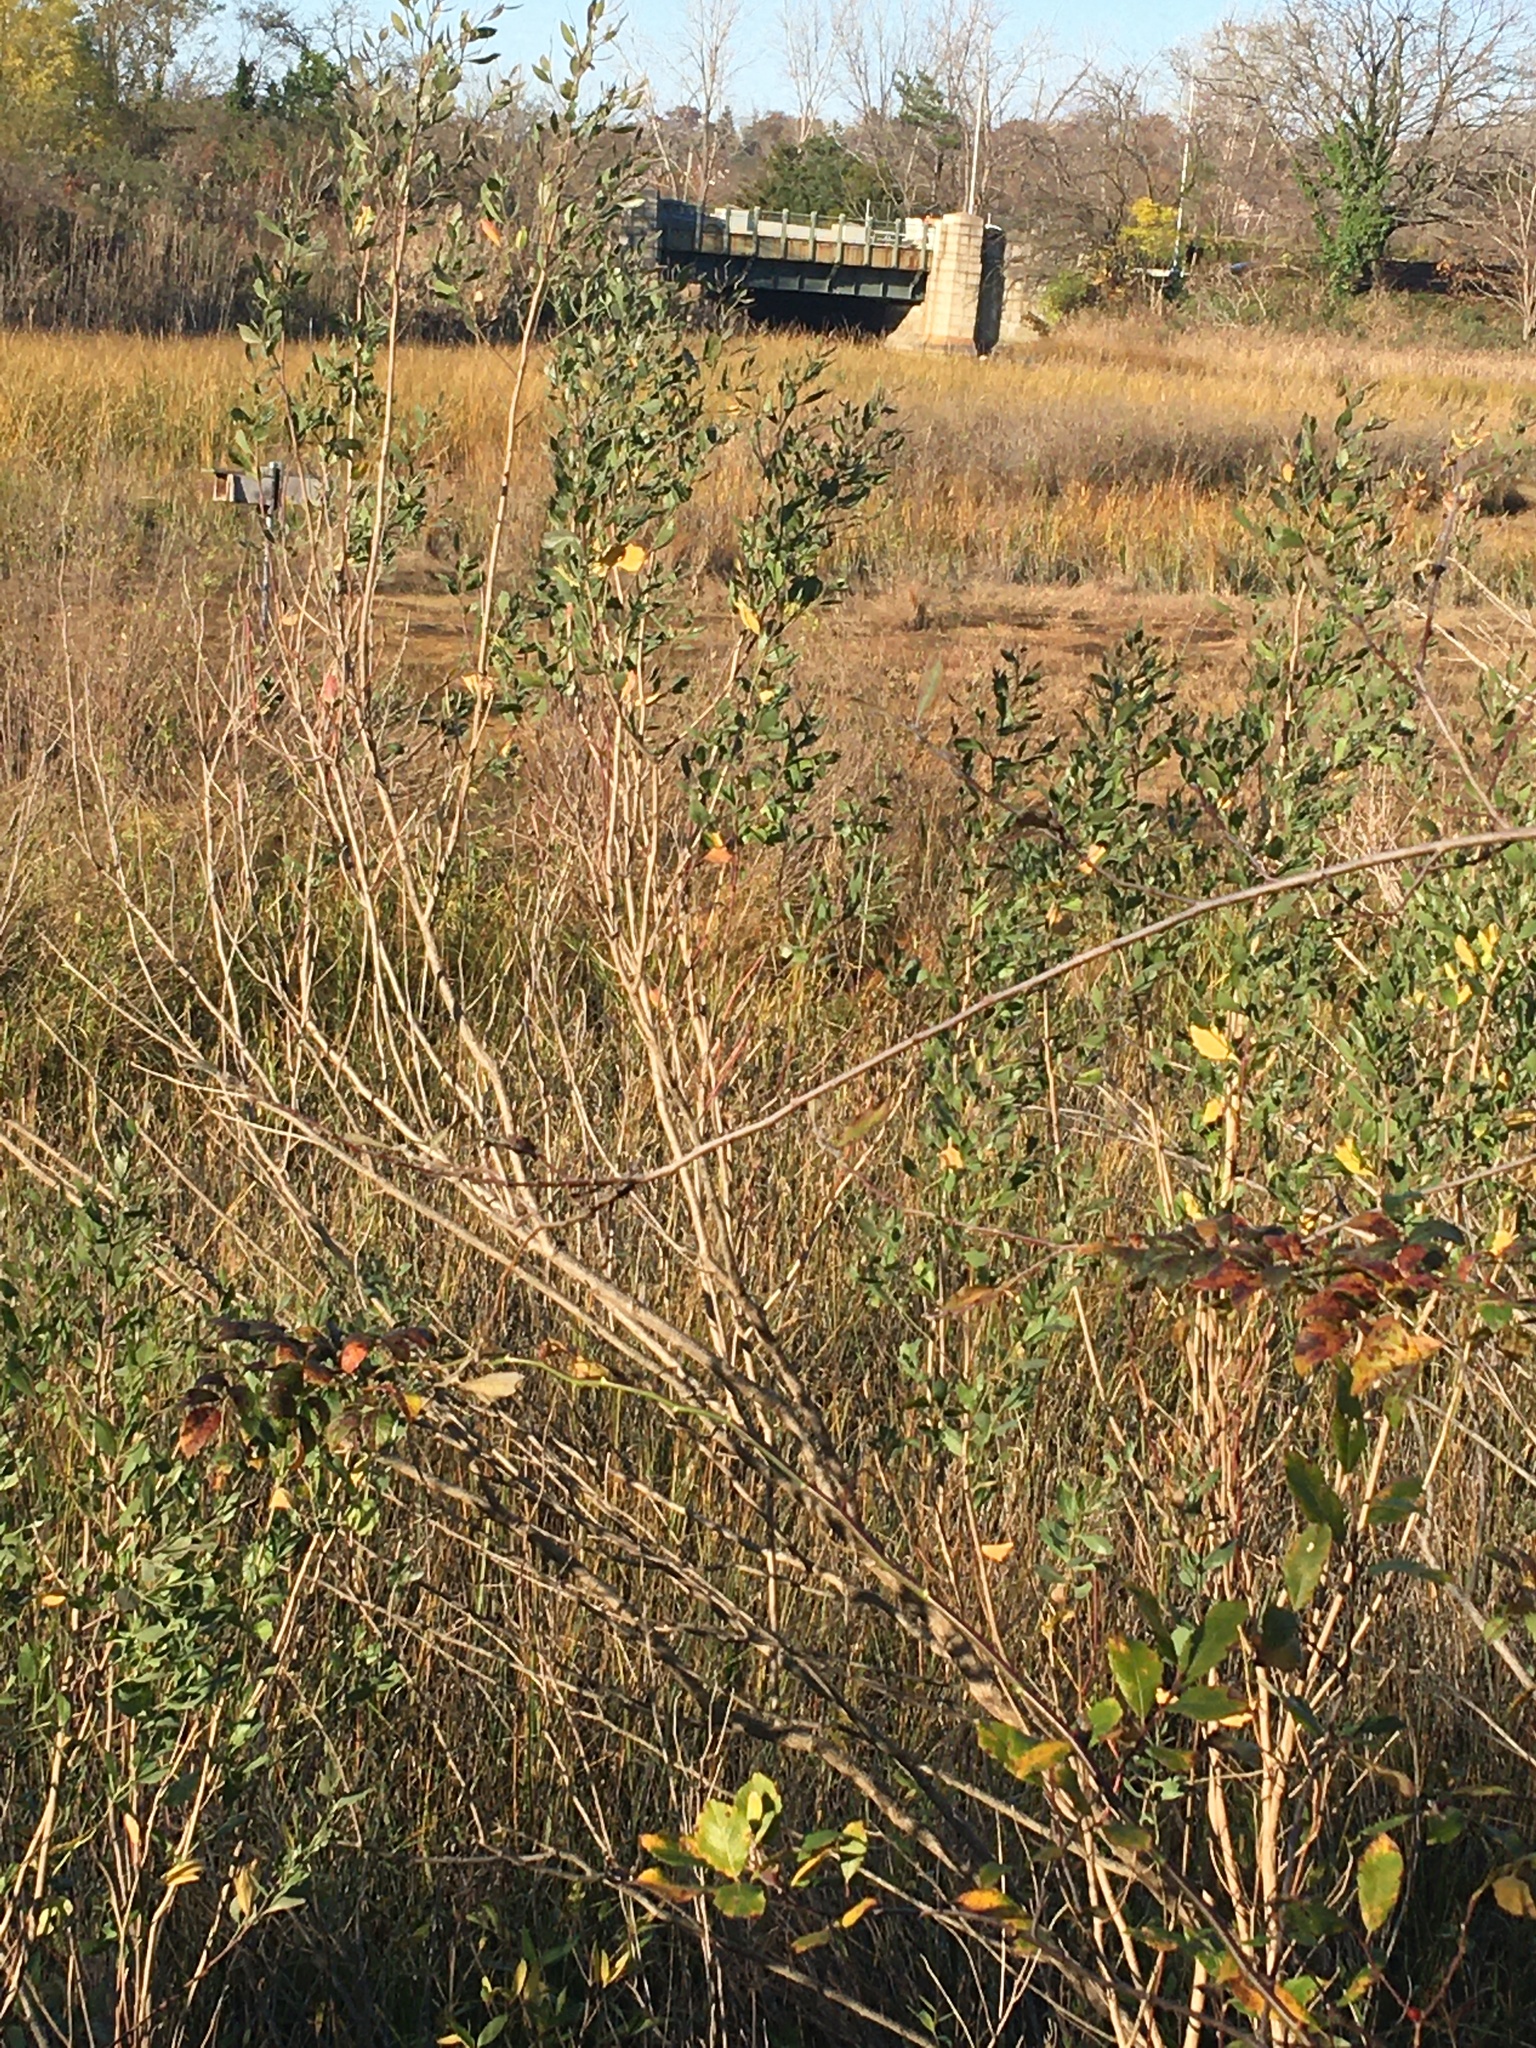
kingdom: Plantae
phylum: Tracheophyta
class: Magnoliopsida
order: Asterales
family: Asteraceae
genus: Baccharis
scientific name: Baccharis halimifolia
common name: Eastern baccharis
